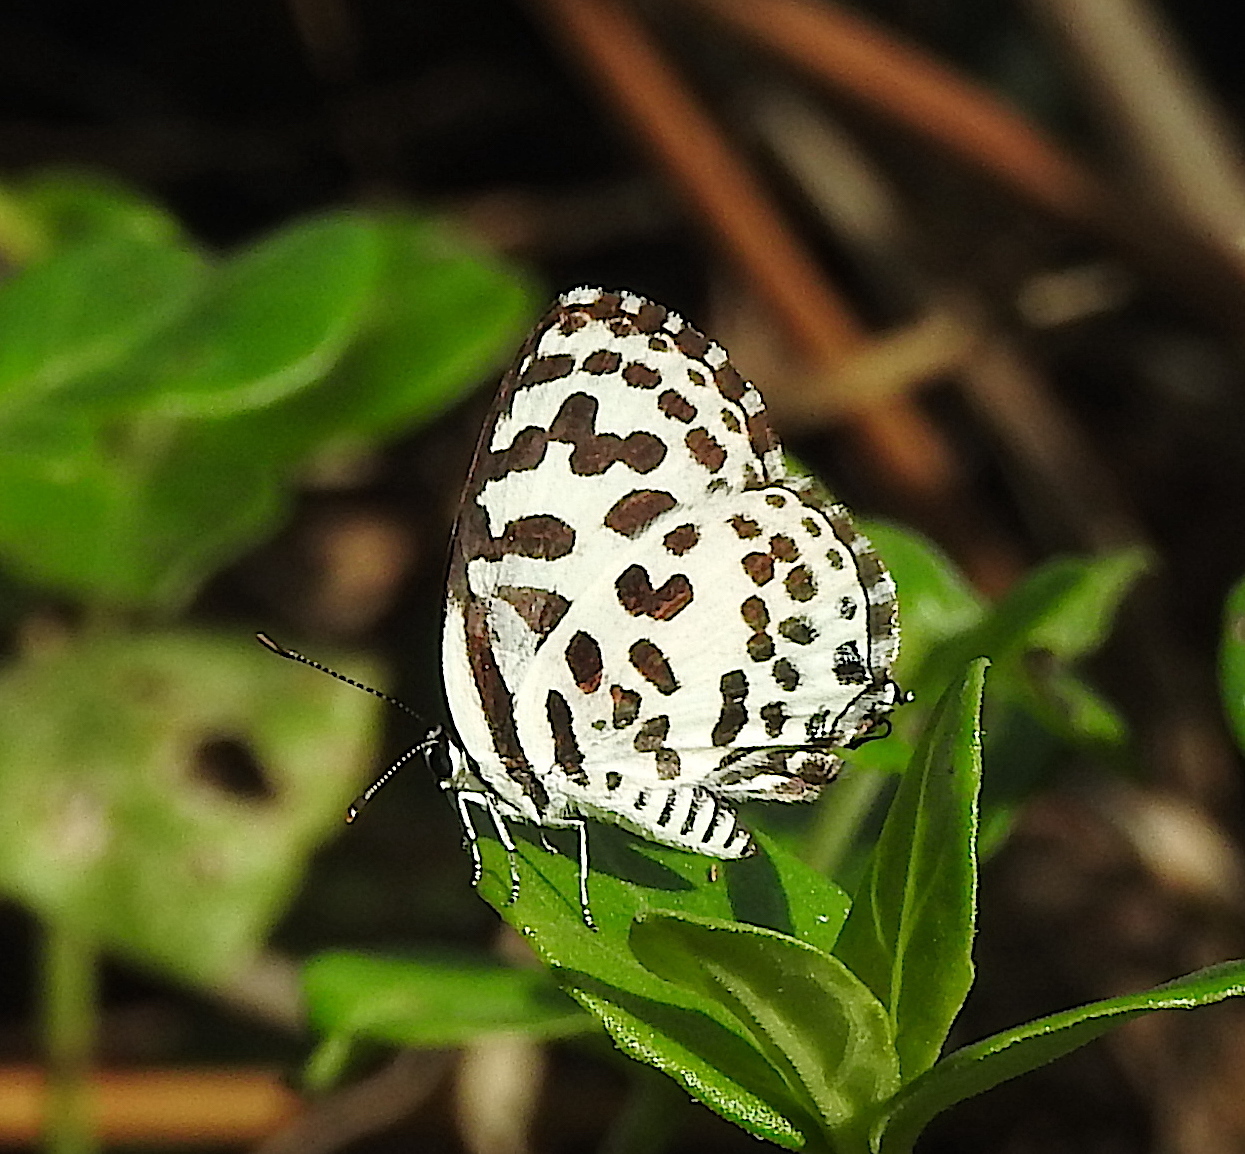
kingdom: Animalia
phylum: Arthropoda
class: Insecta
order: Lepidoptera
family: Lycaenidae
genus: Castalius
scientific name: Castalius rosimon
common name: Common pierrot
